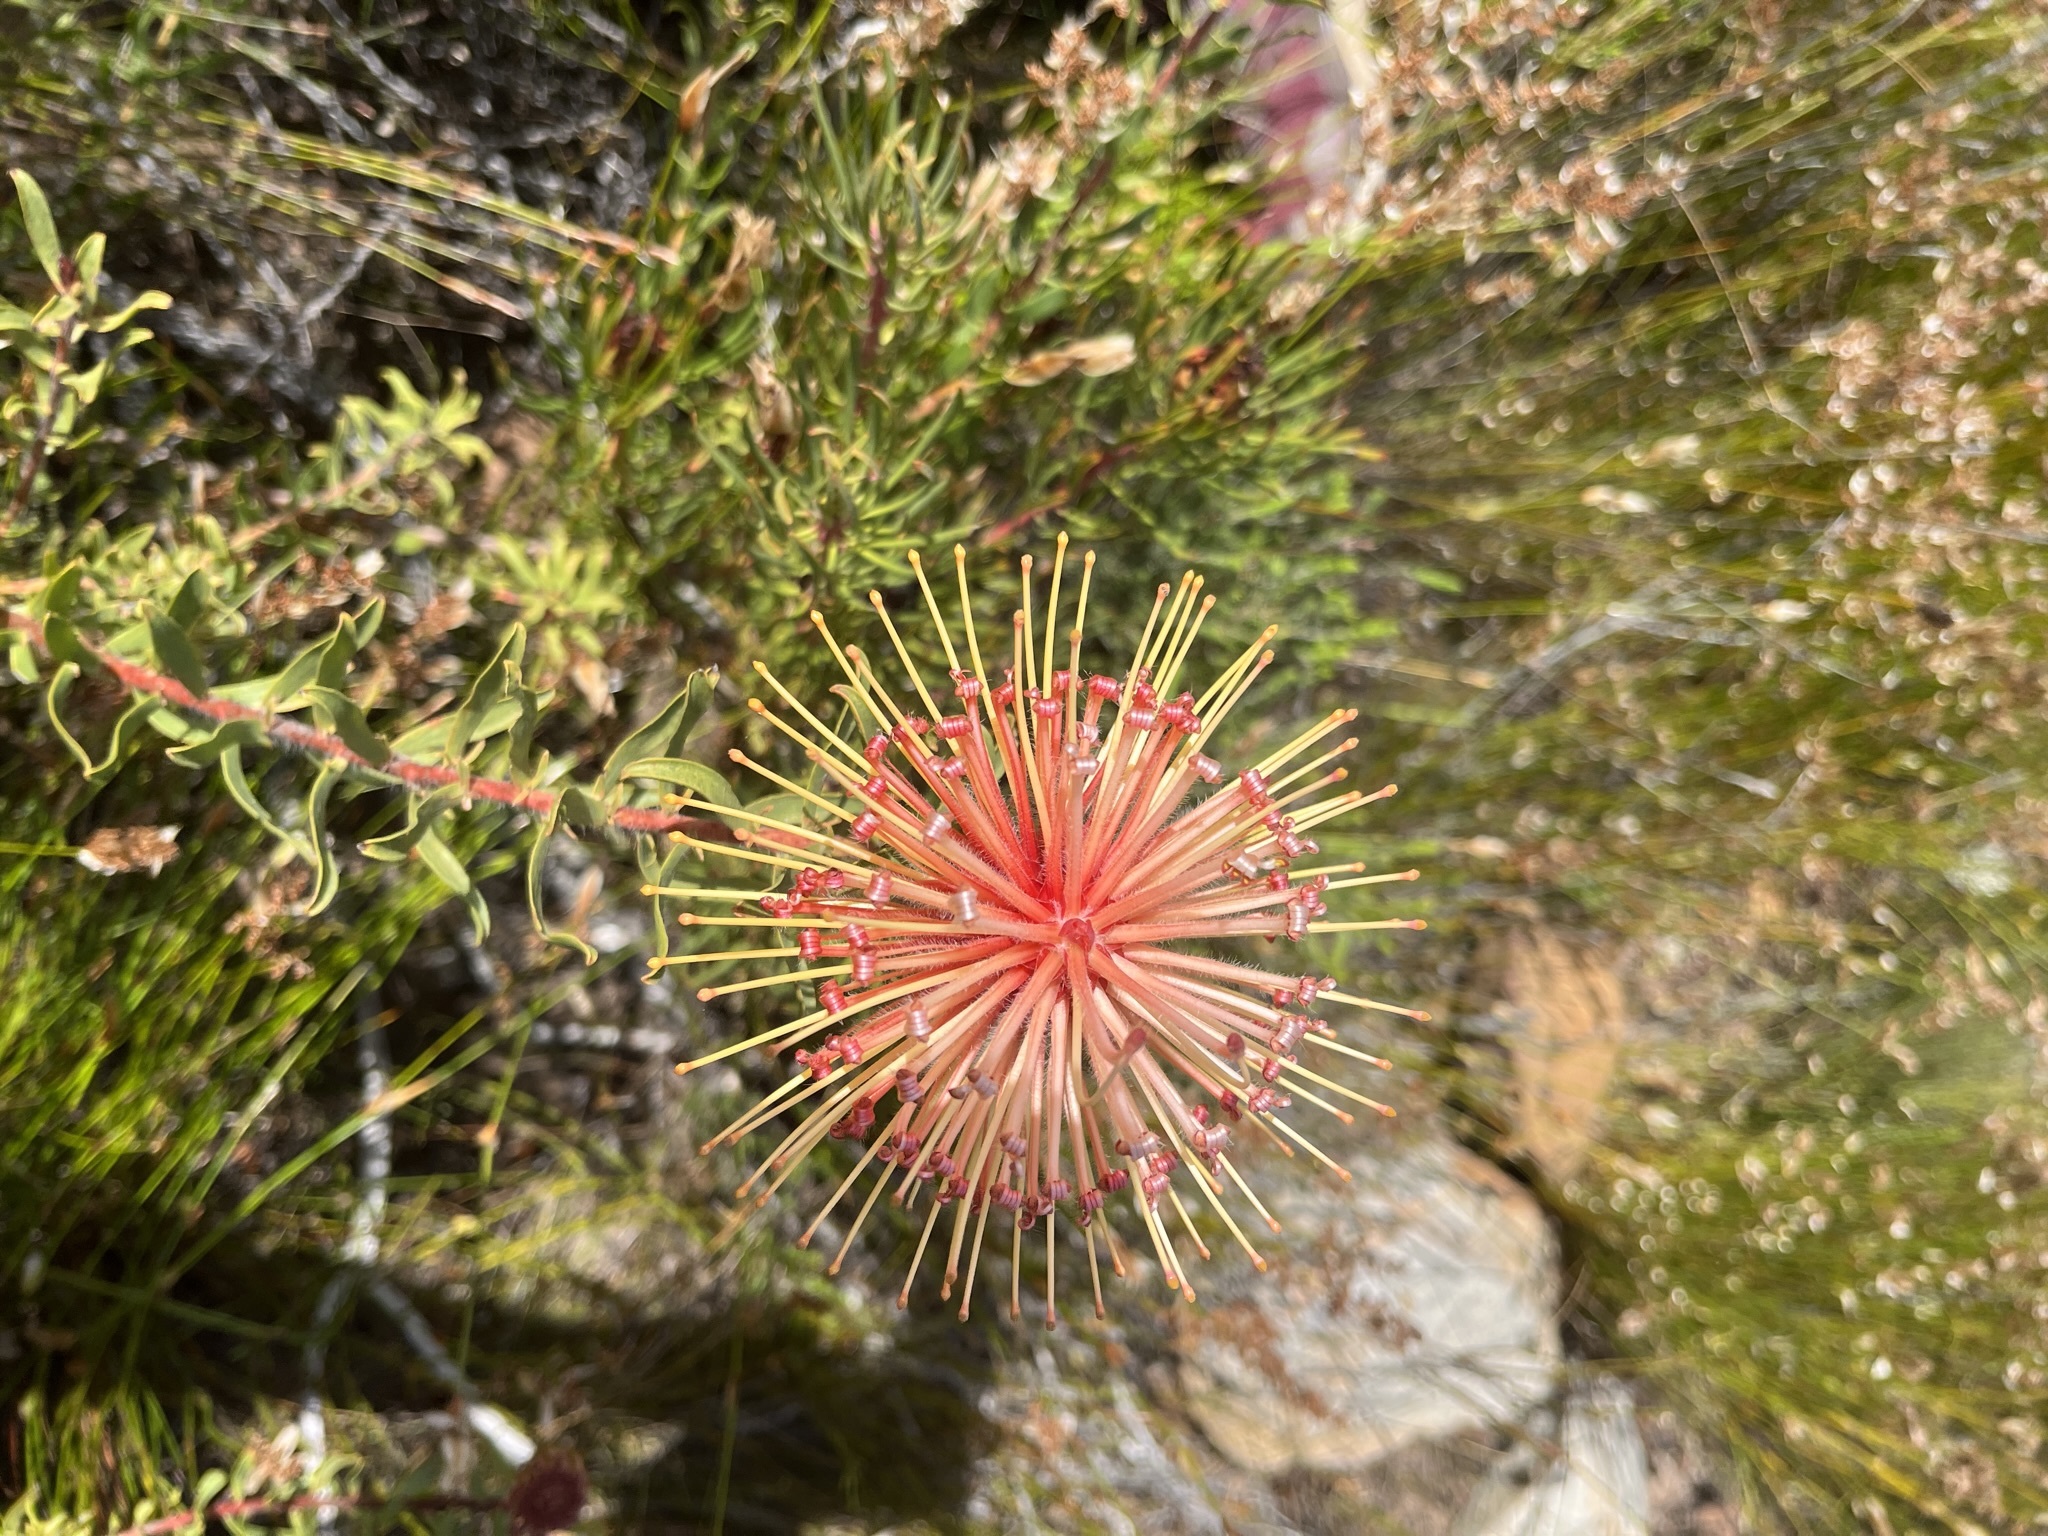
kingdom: Plantae
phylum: Tracheophyta
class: Magnoliopsida
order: Proteales
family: Proteaceae
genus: Leucospermum
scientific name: Leucospermum tottum
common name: Ribbon pincushion
